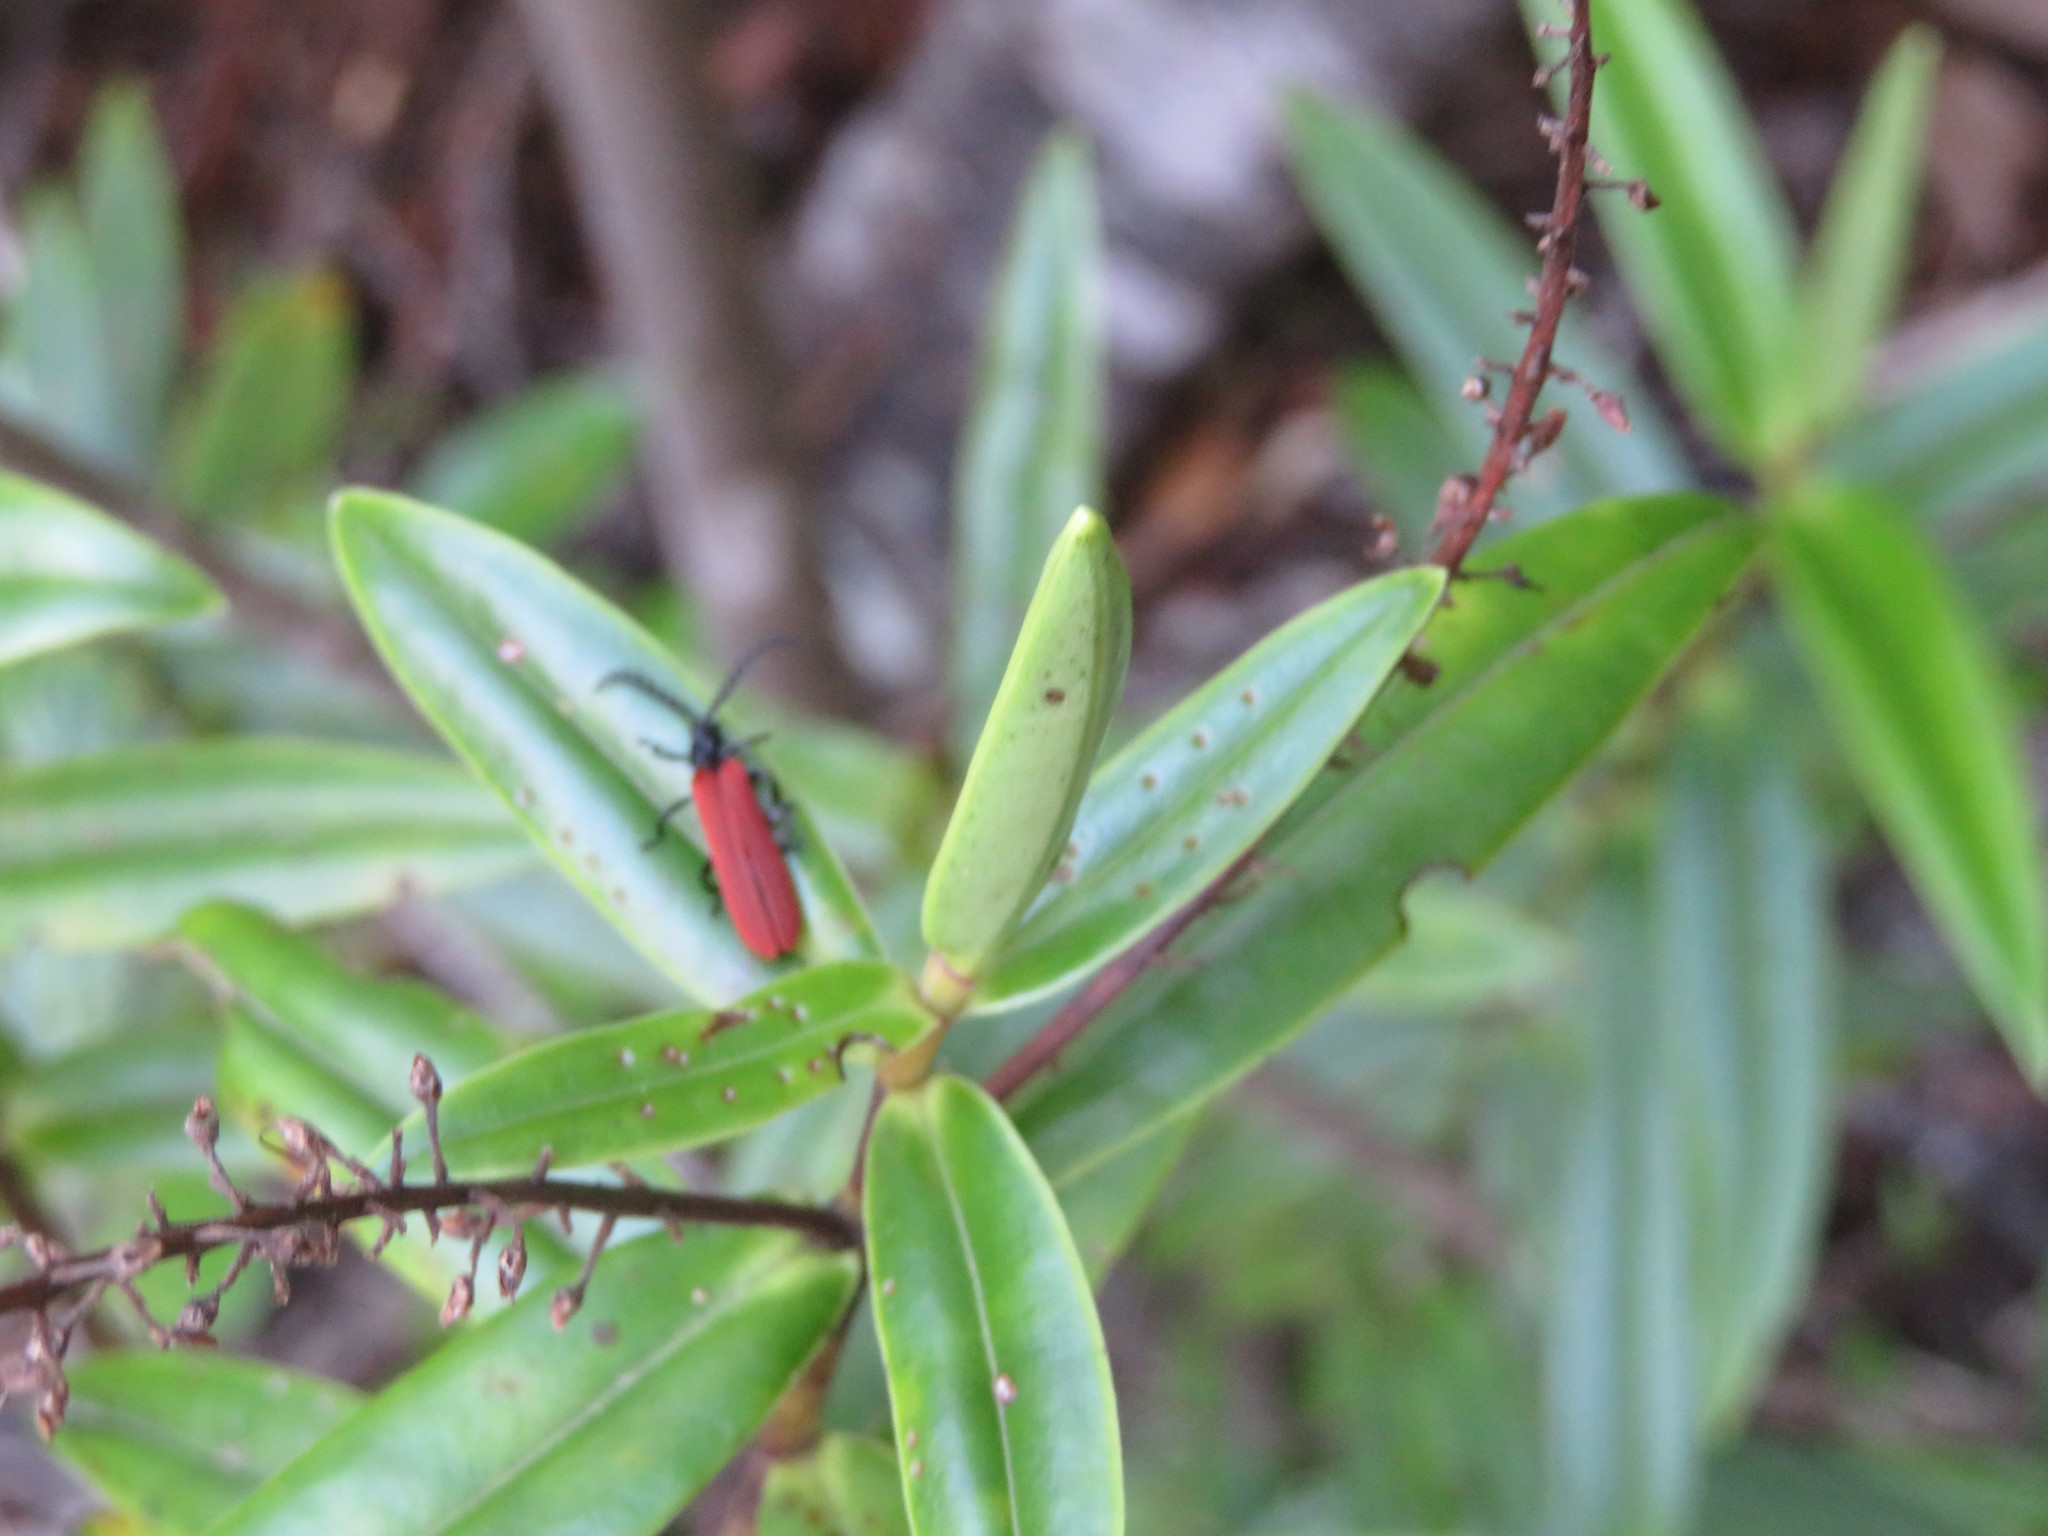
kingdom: Animalia
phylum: Arthropoda
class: Insecta
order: Coleoptera
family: Lycidae
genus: Porrostoma
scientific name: Porrostoma rufipenne
